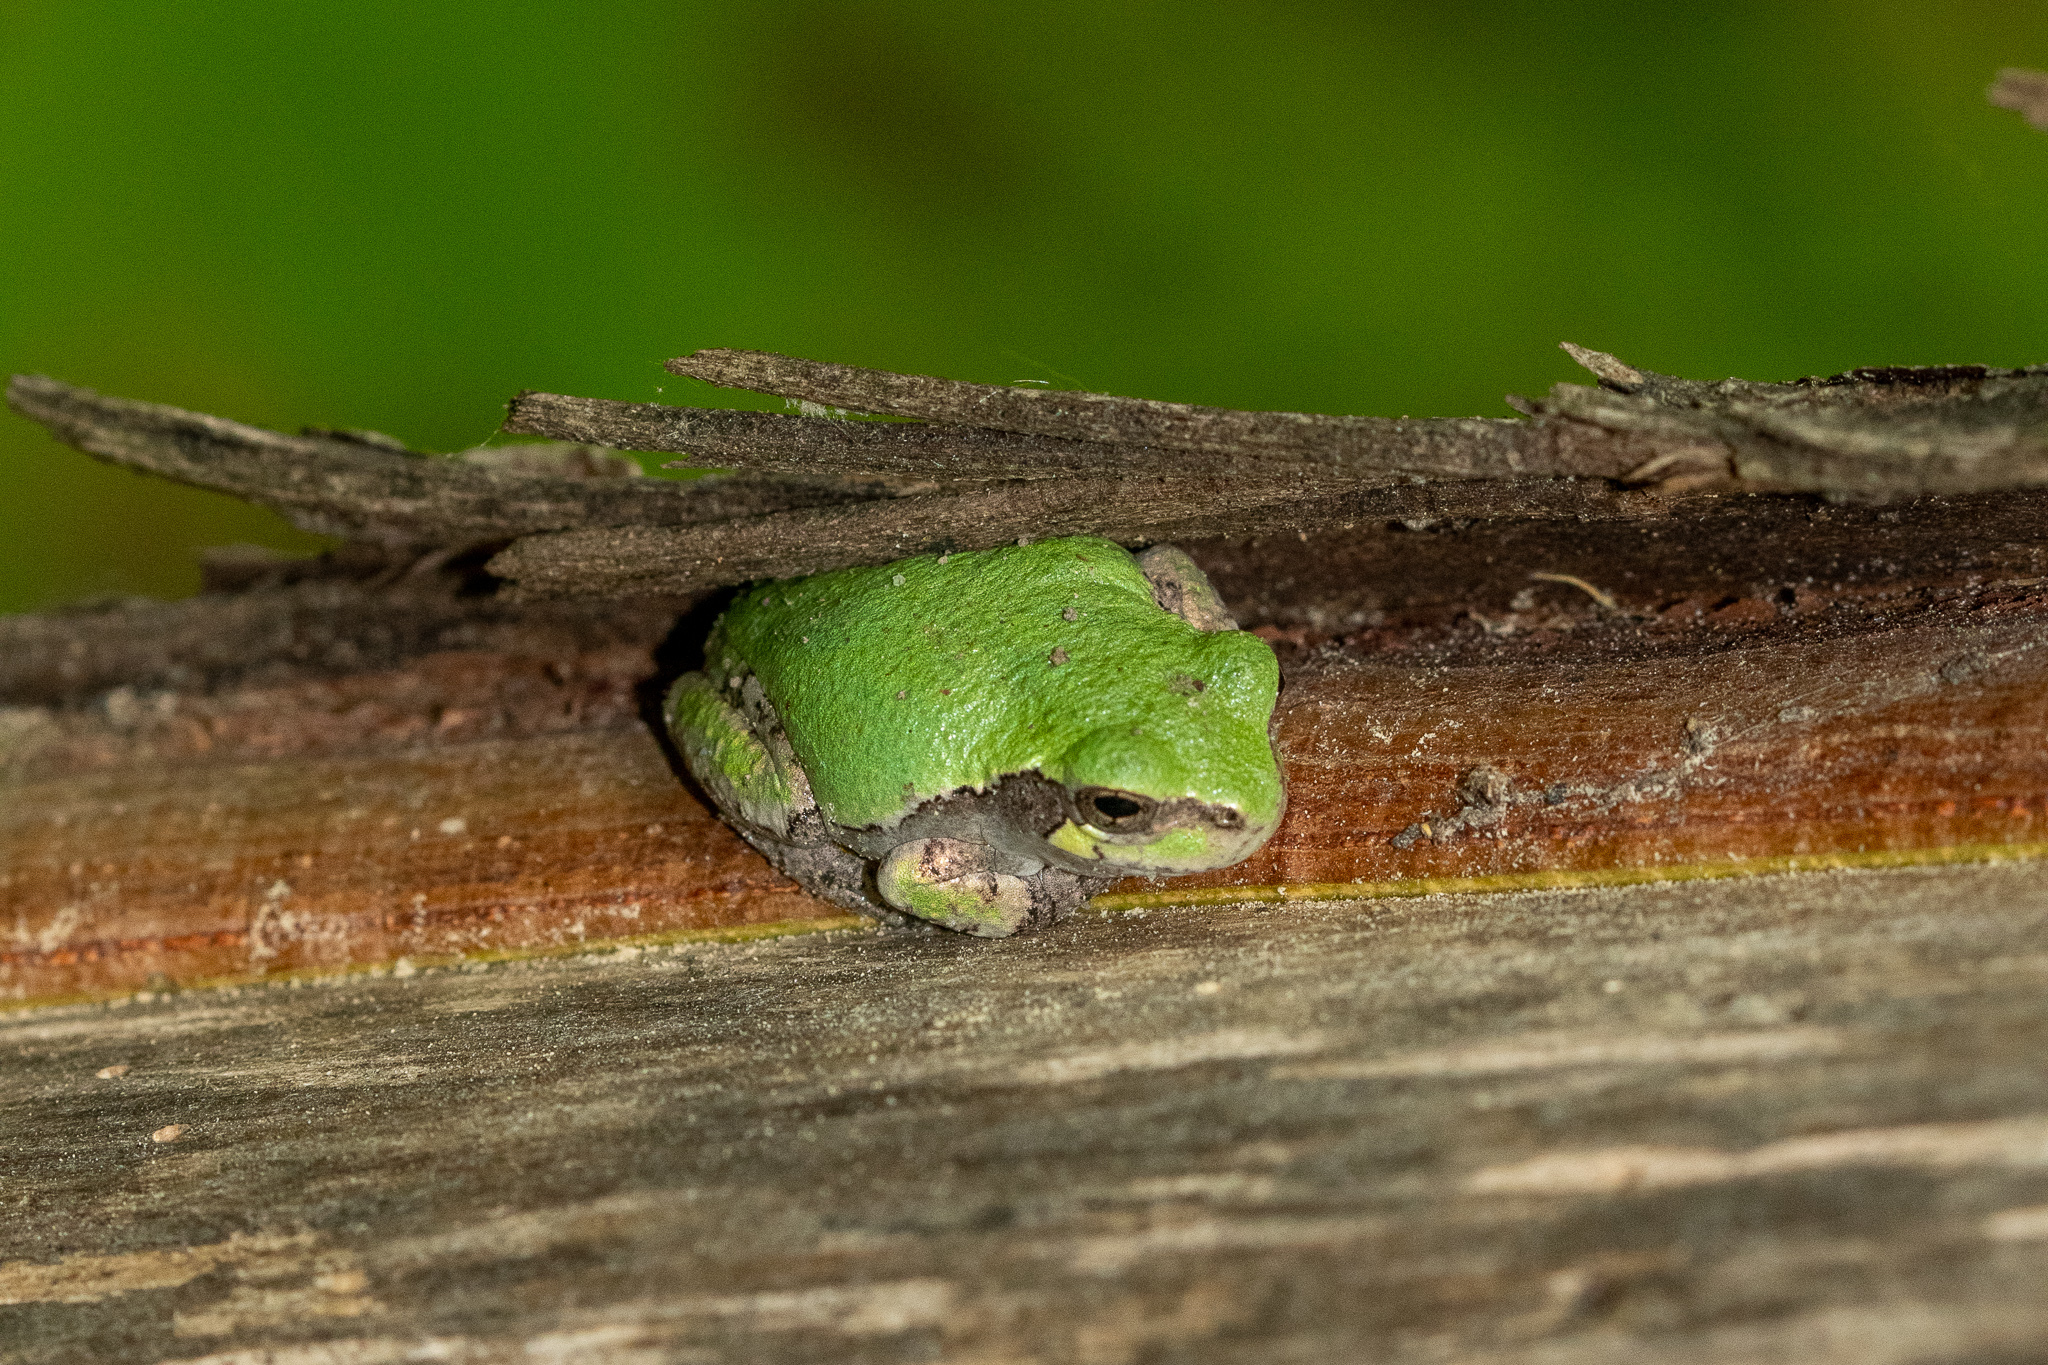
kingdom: Animalia
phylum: Chordata
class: Amphibia
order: Anura
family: Hylidae
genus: Hyla
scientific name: Hyla
